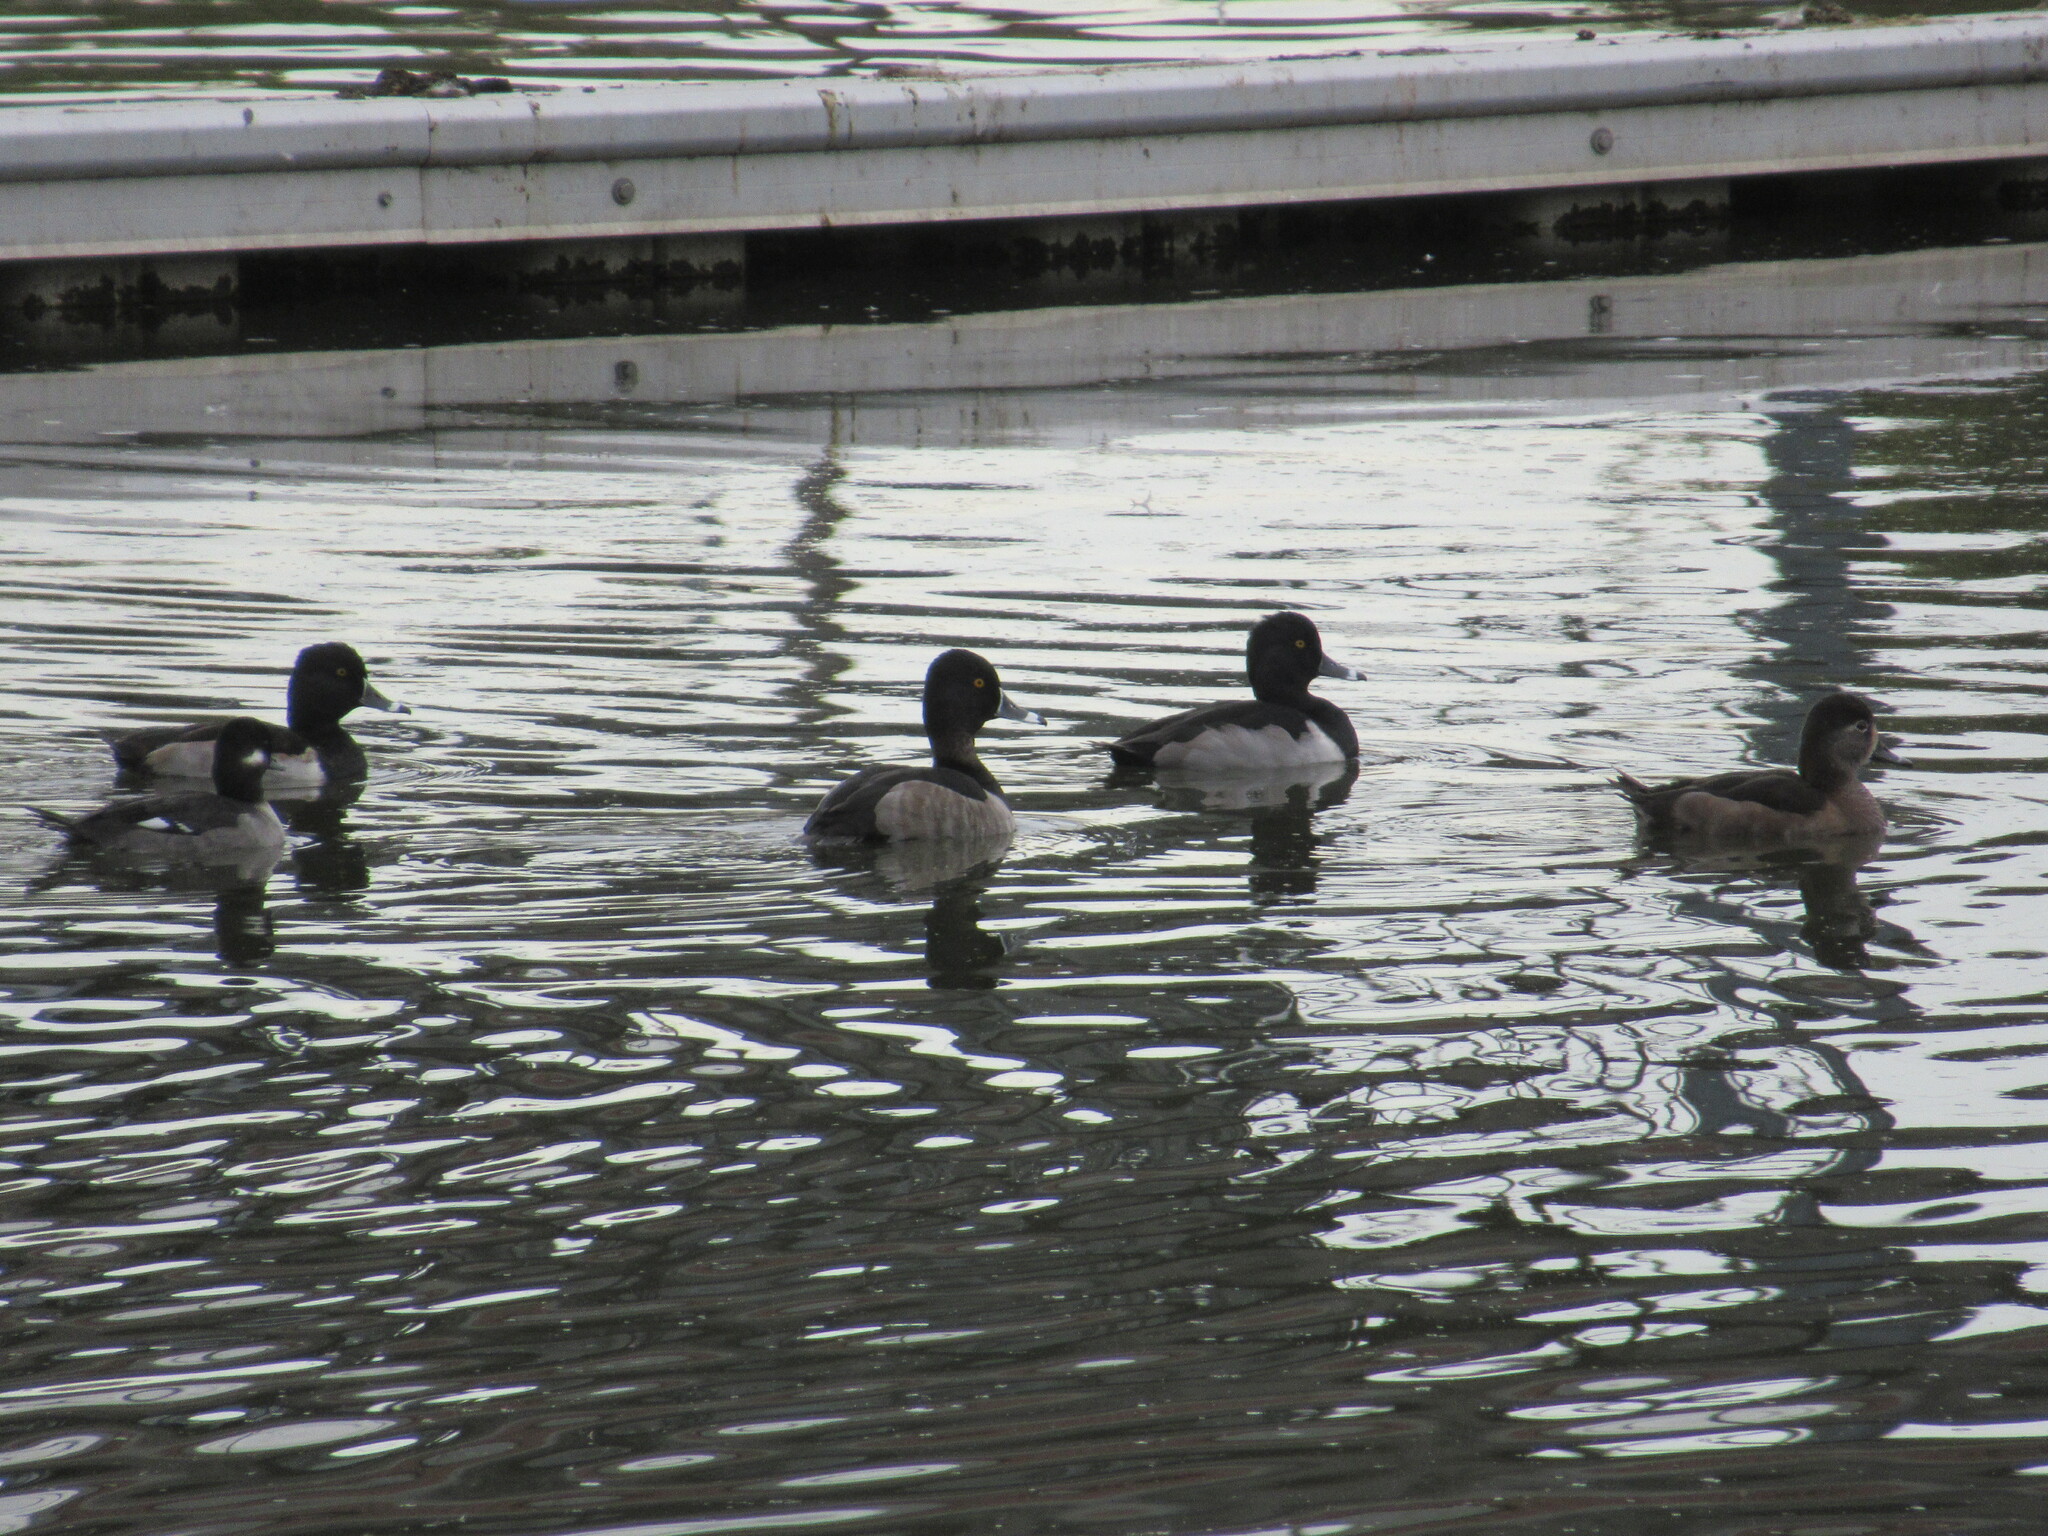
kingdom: Animalia
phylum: Chordata
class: Aves
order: Anseriformes
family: Anatidae
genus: Aythya
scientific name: Aythya collaris
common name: Ring-necked duck
